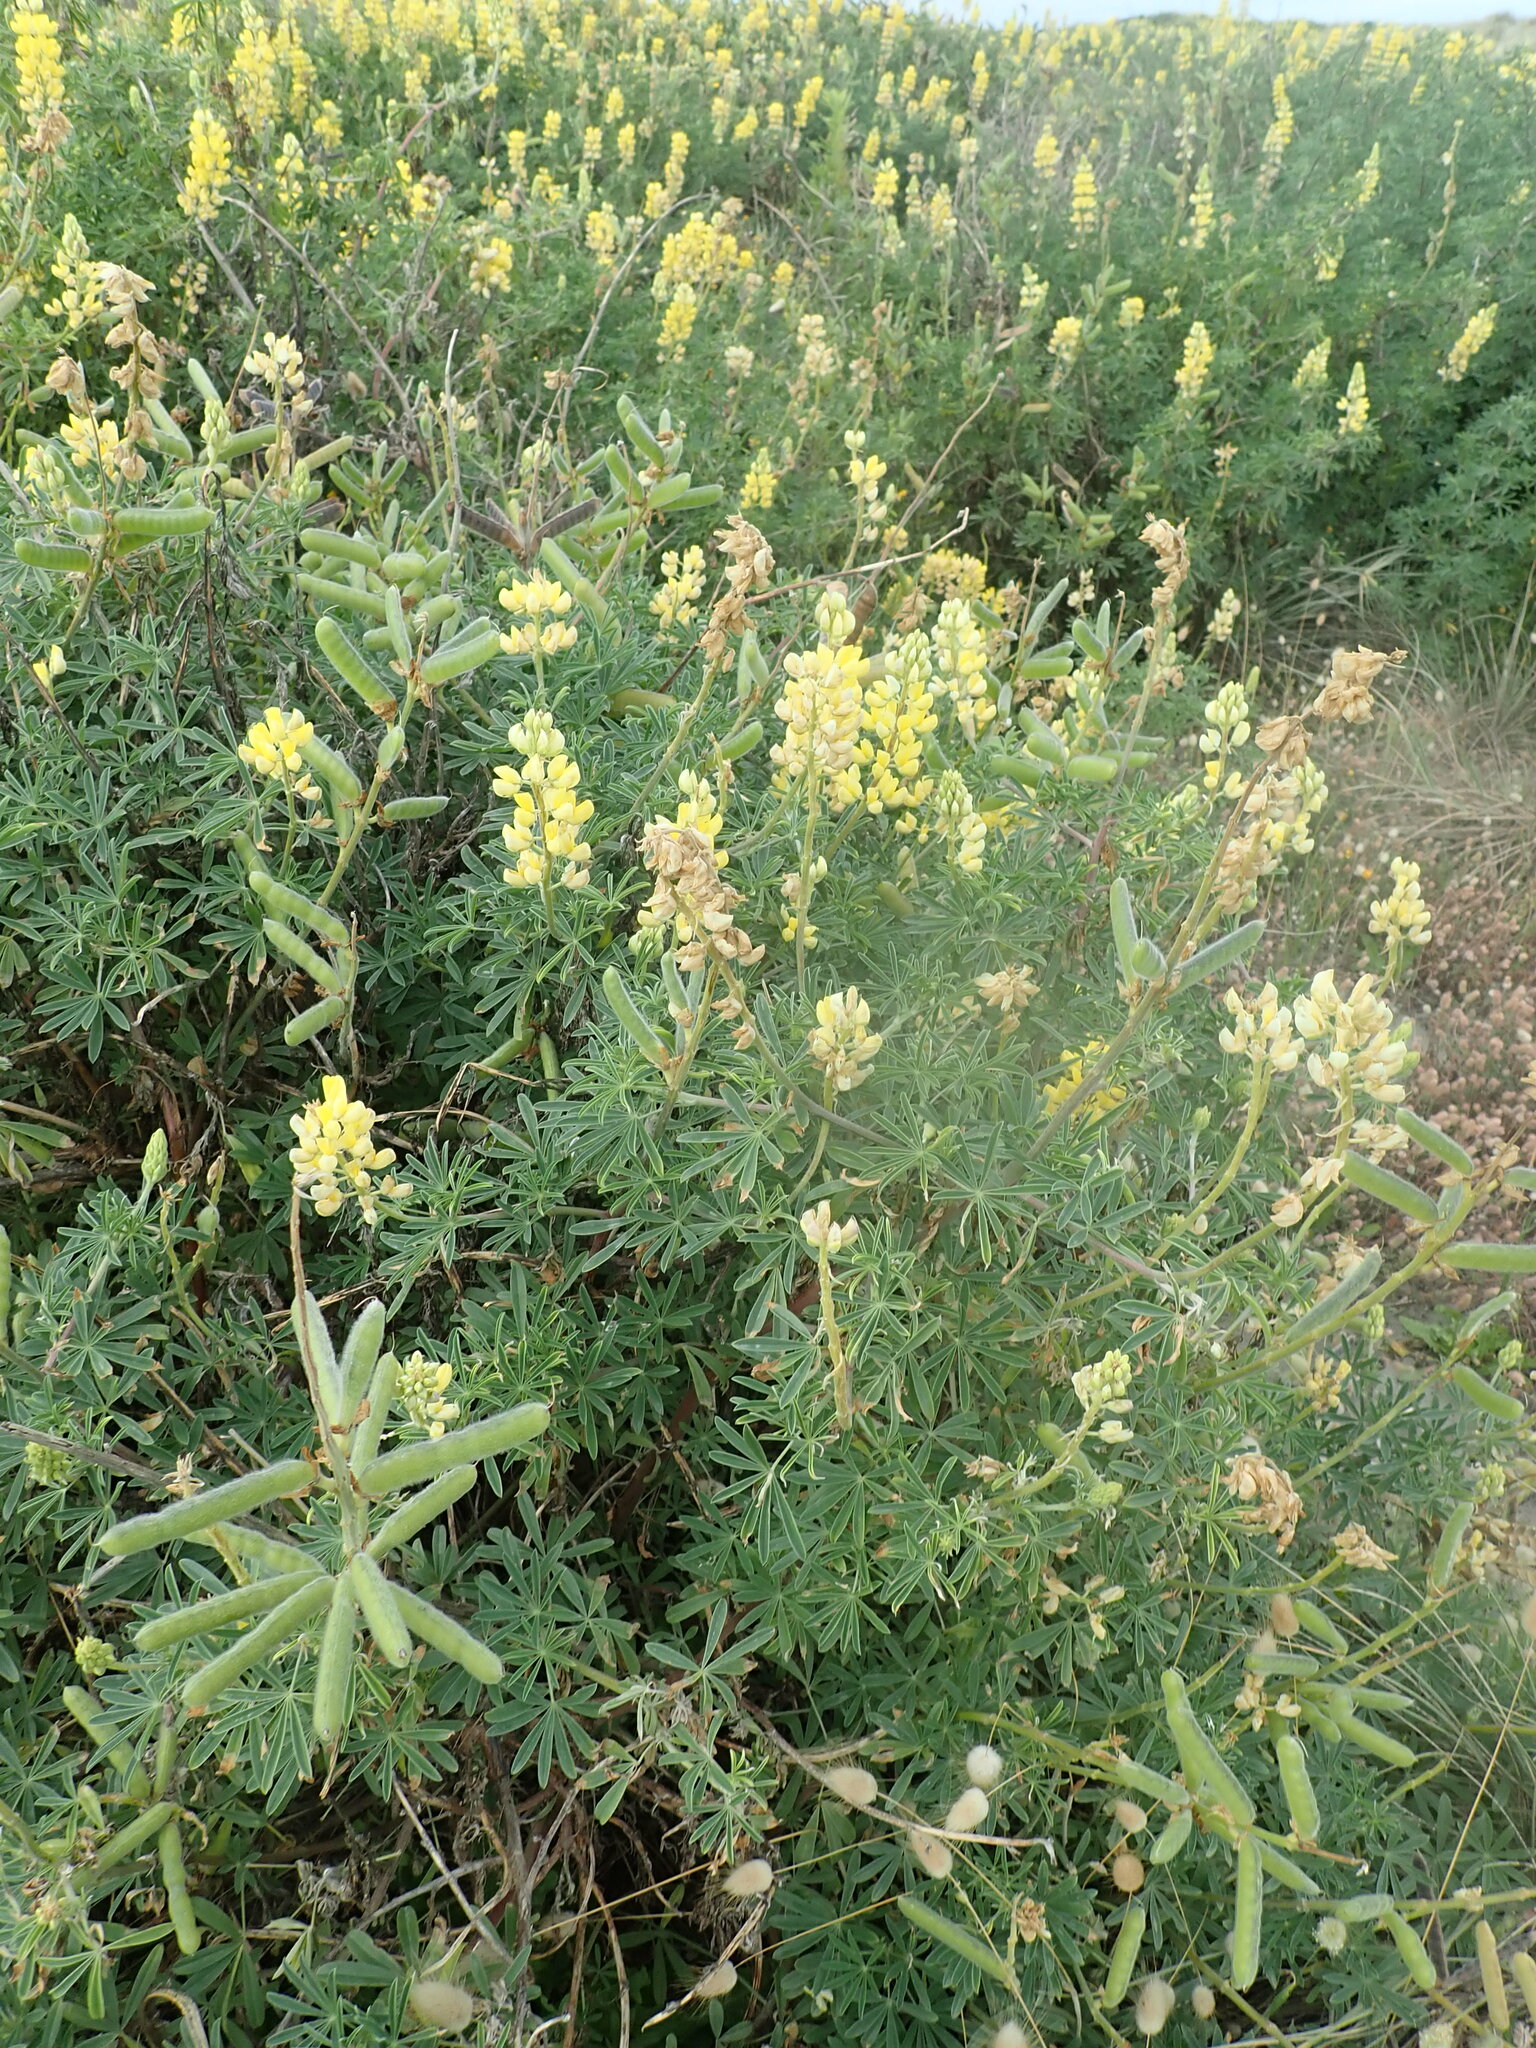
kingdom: Plantae
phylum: Tracheophyta
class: Magnoliopsida
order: Fabales
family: Fabaceae
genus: Lupinus
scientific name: Lupinus arboreus
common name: Yellow bush lupine
